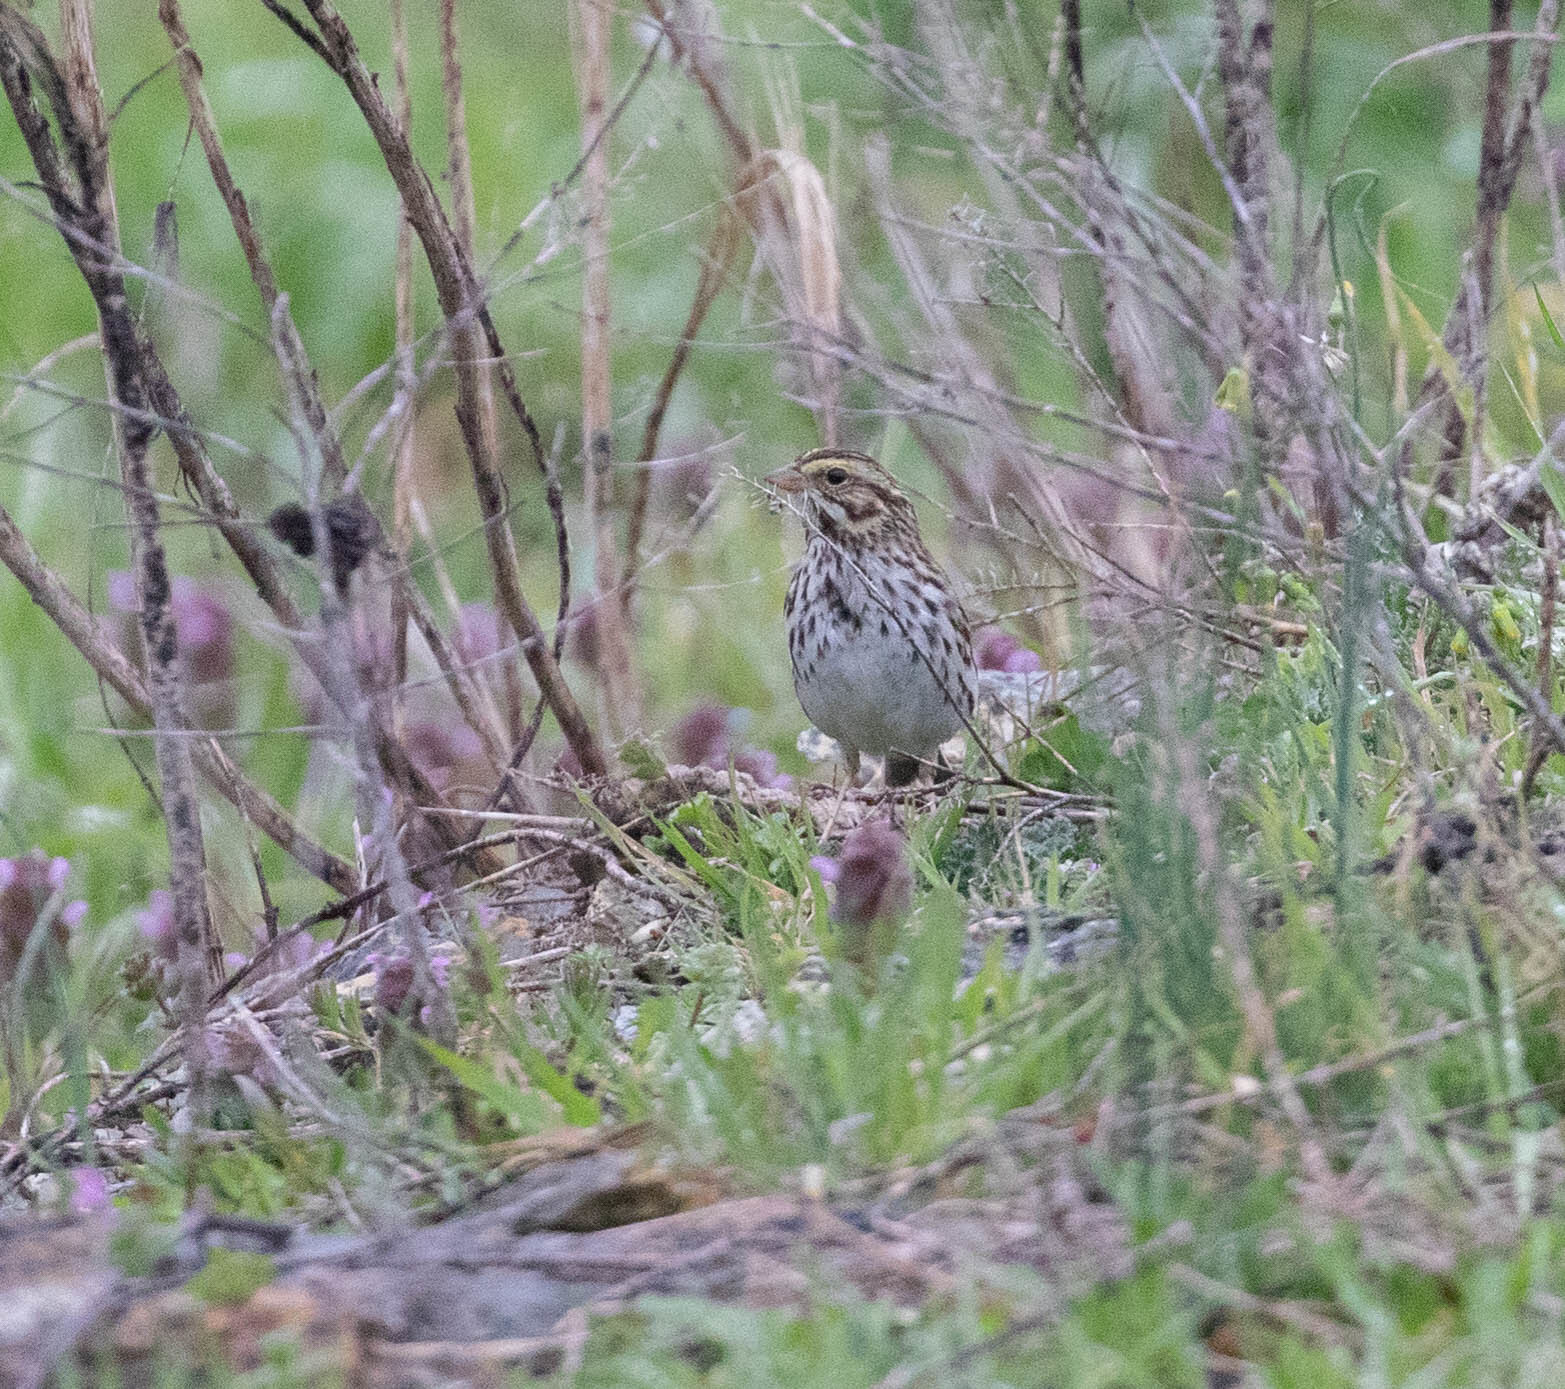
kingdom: Animalia
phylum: Chordata
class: Aves
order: Passeriformes
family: Passerellidae
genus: Passerculus
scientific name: Passerculus sandwichensis
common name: Savannah sparrow
